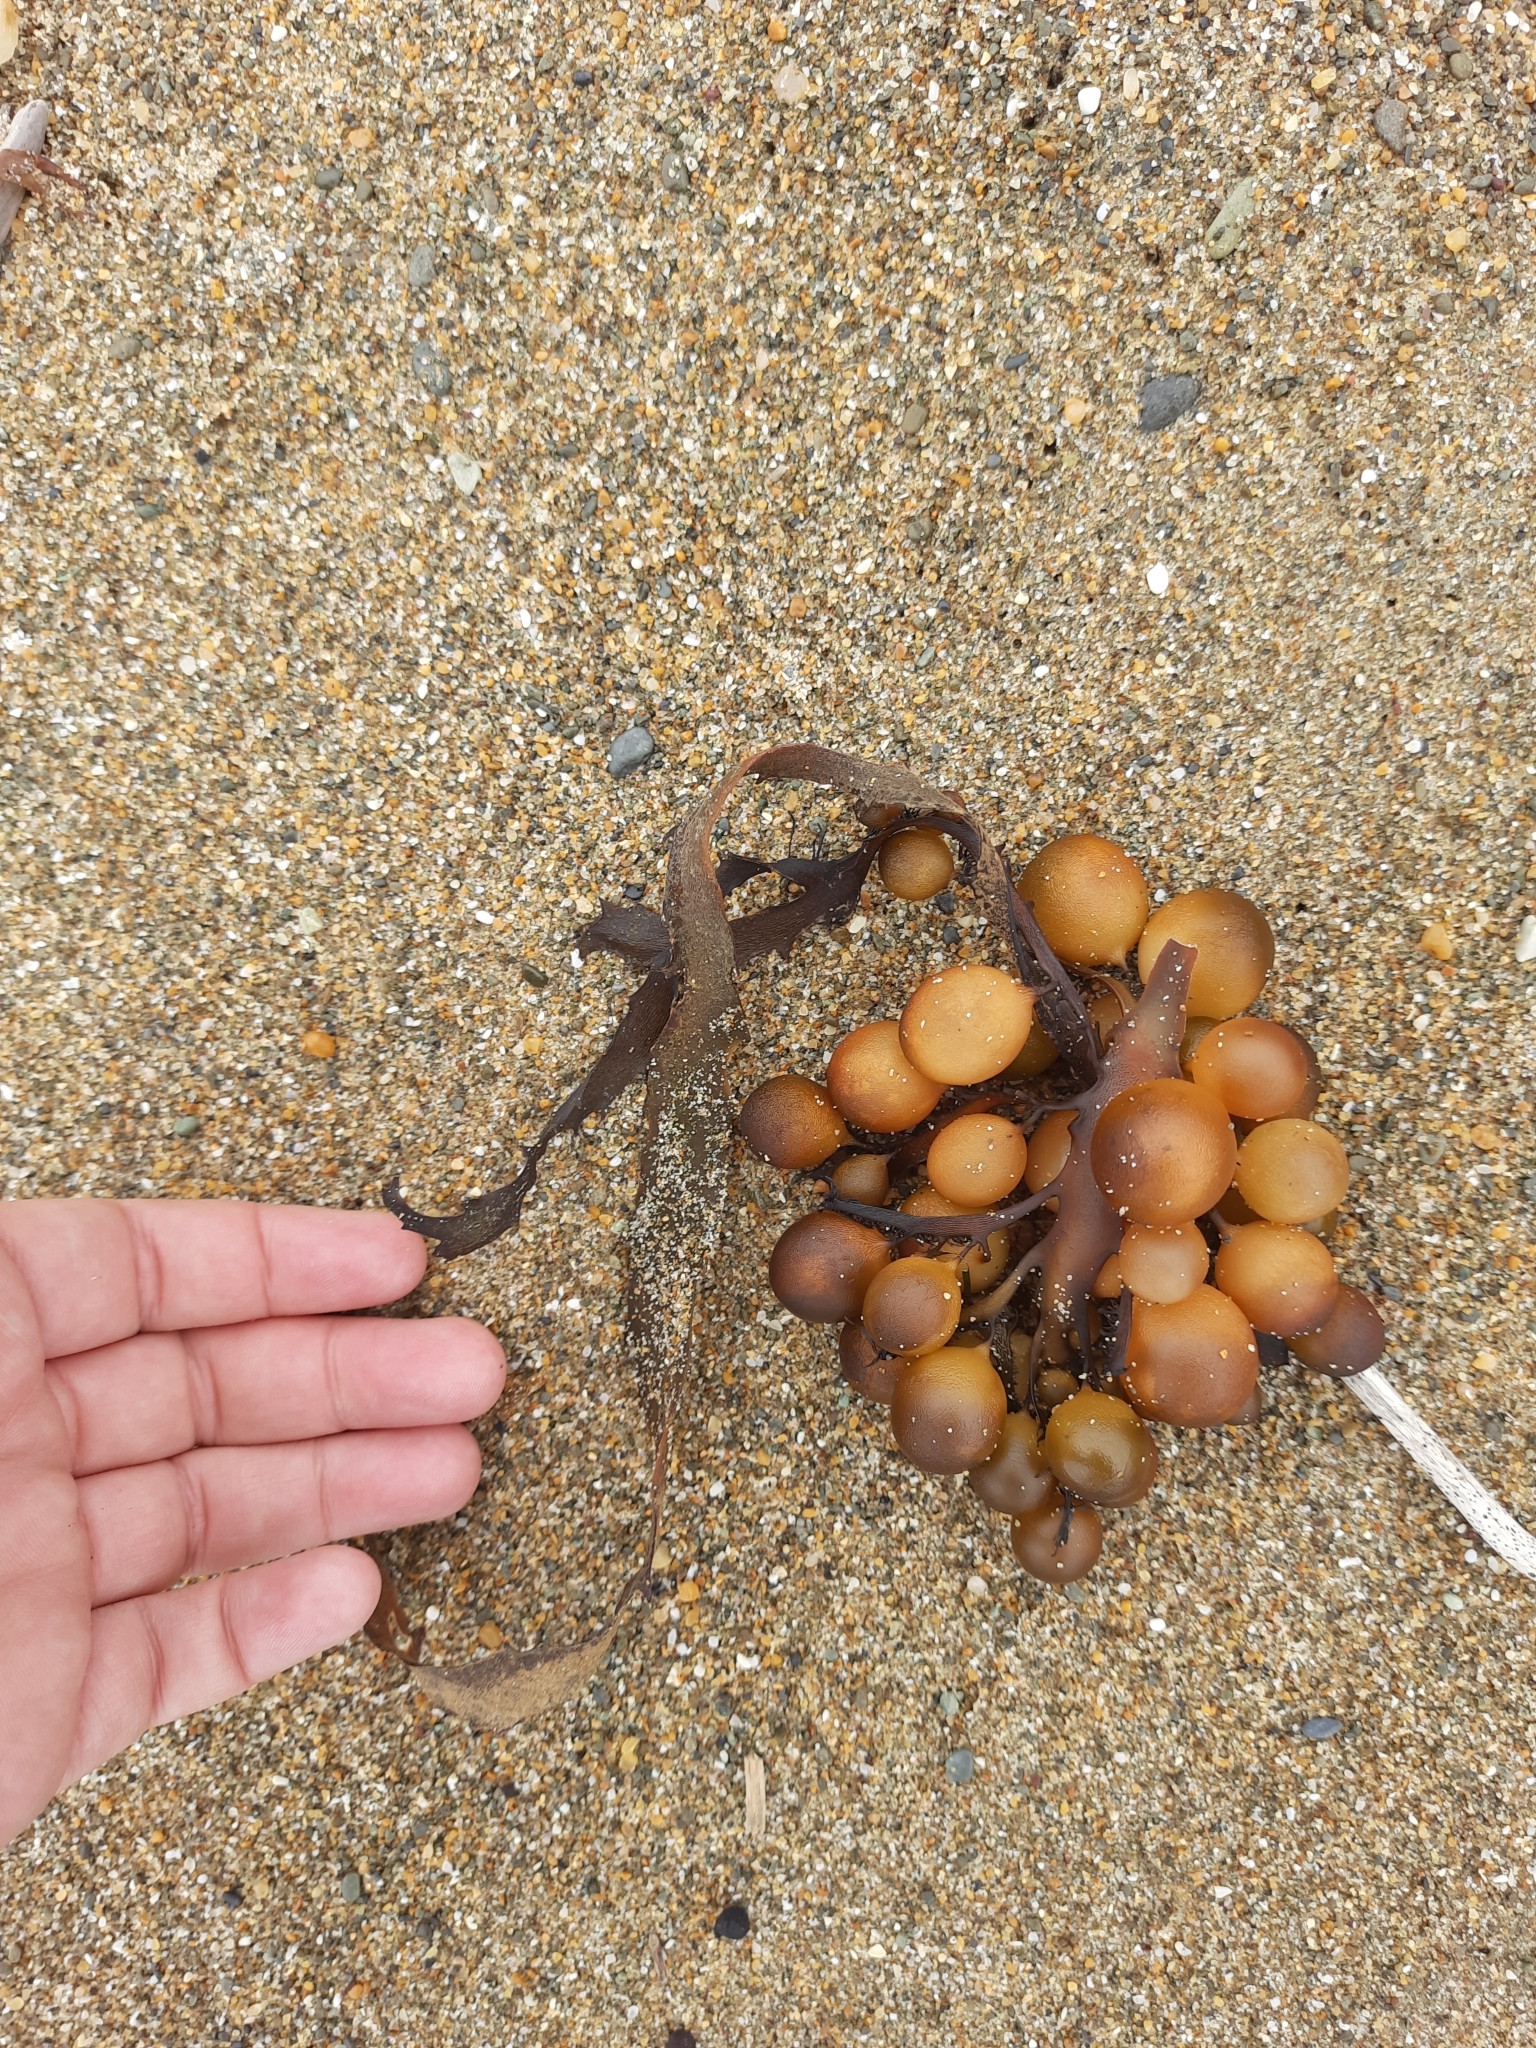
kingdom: Chromista
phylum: Ochrophyta
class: Phaeophyceae
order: Fucales
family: Seirococcaceae
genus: Marginariella
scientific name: Marginariella urvilliana
